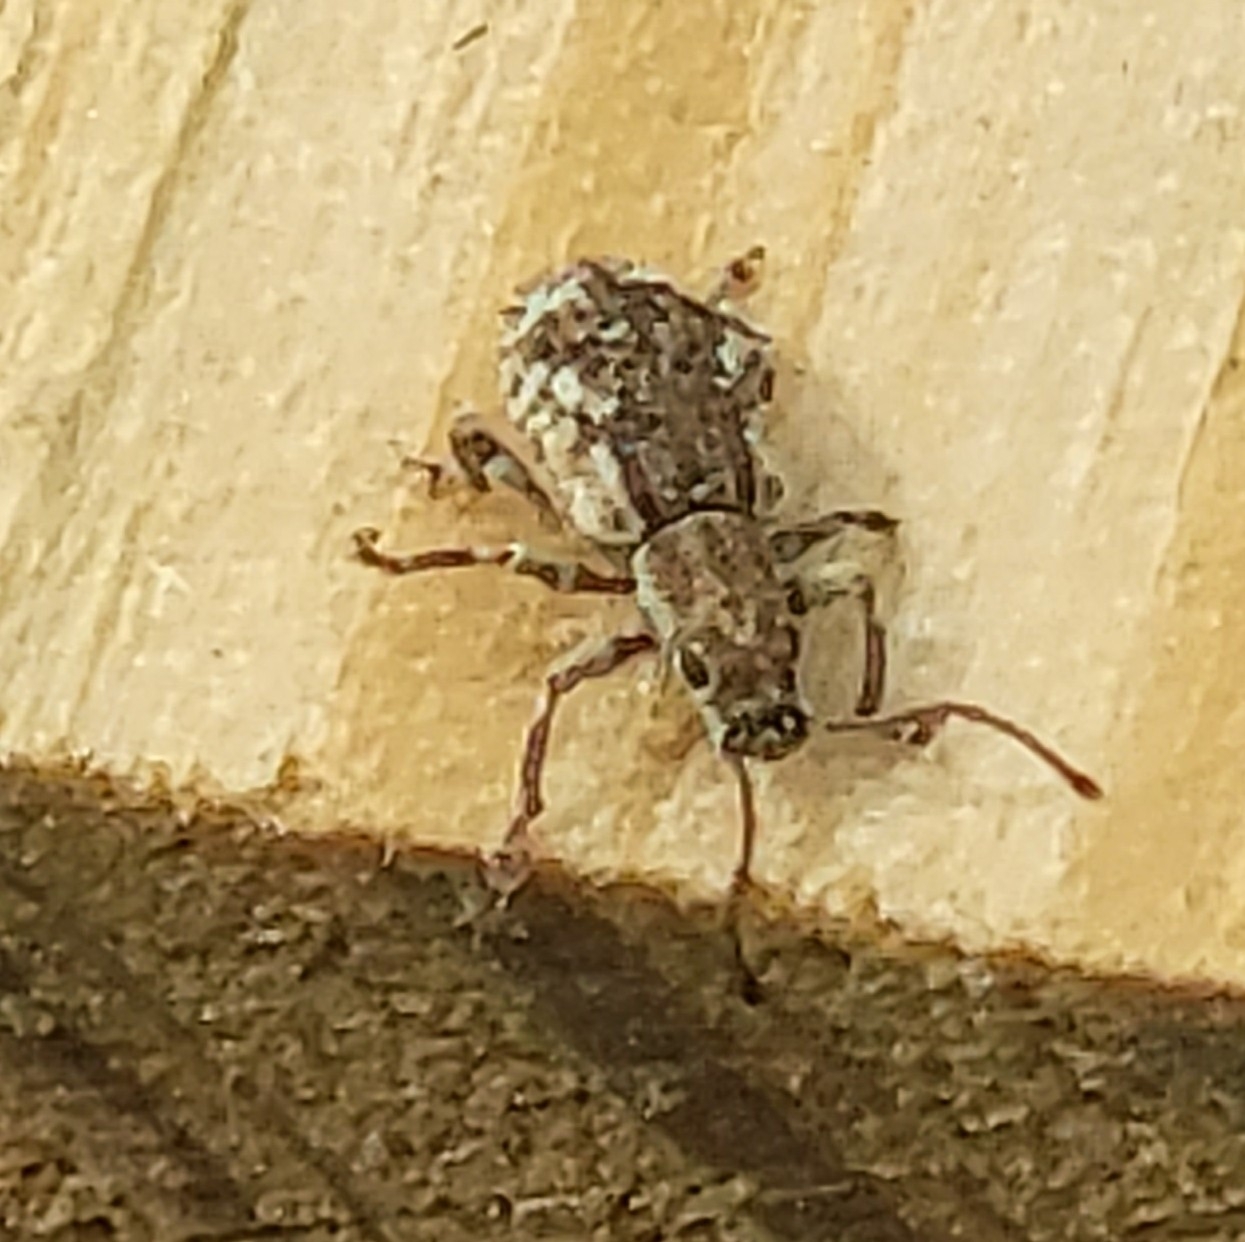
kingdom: Animalia
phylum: Arthropoda
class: Insecta
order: Coleoptera
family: Curculionidae
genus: Pseudoedophrys
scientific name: Pseudoedophrys hilleri
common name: Weevil
